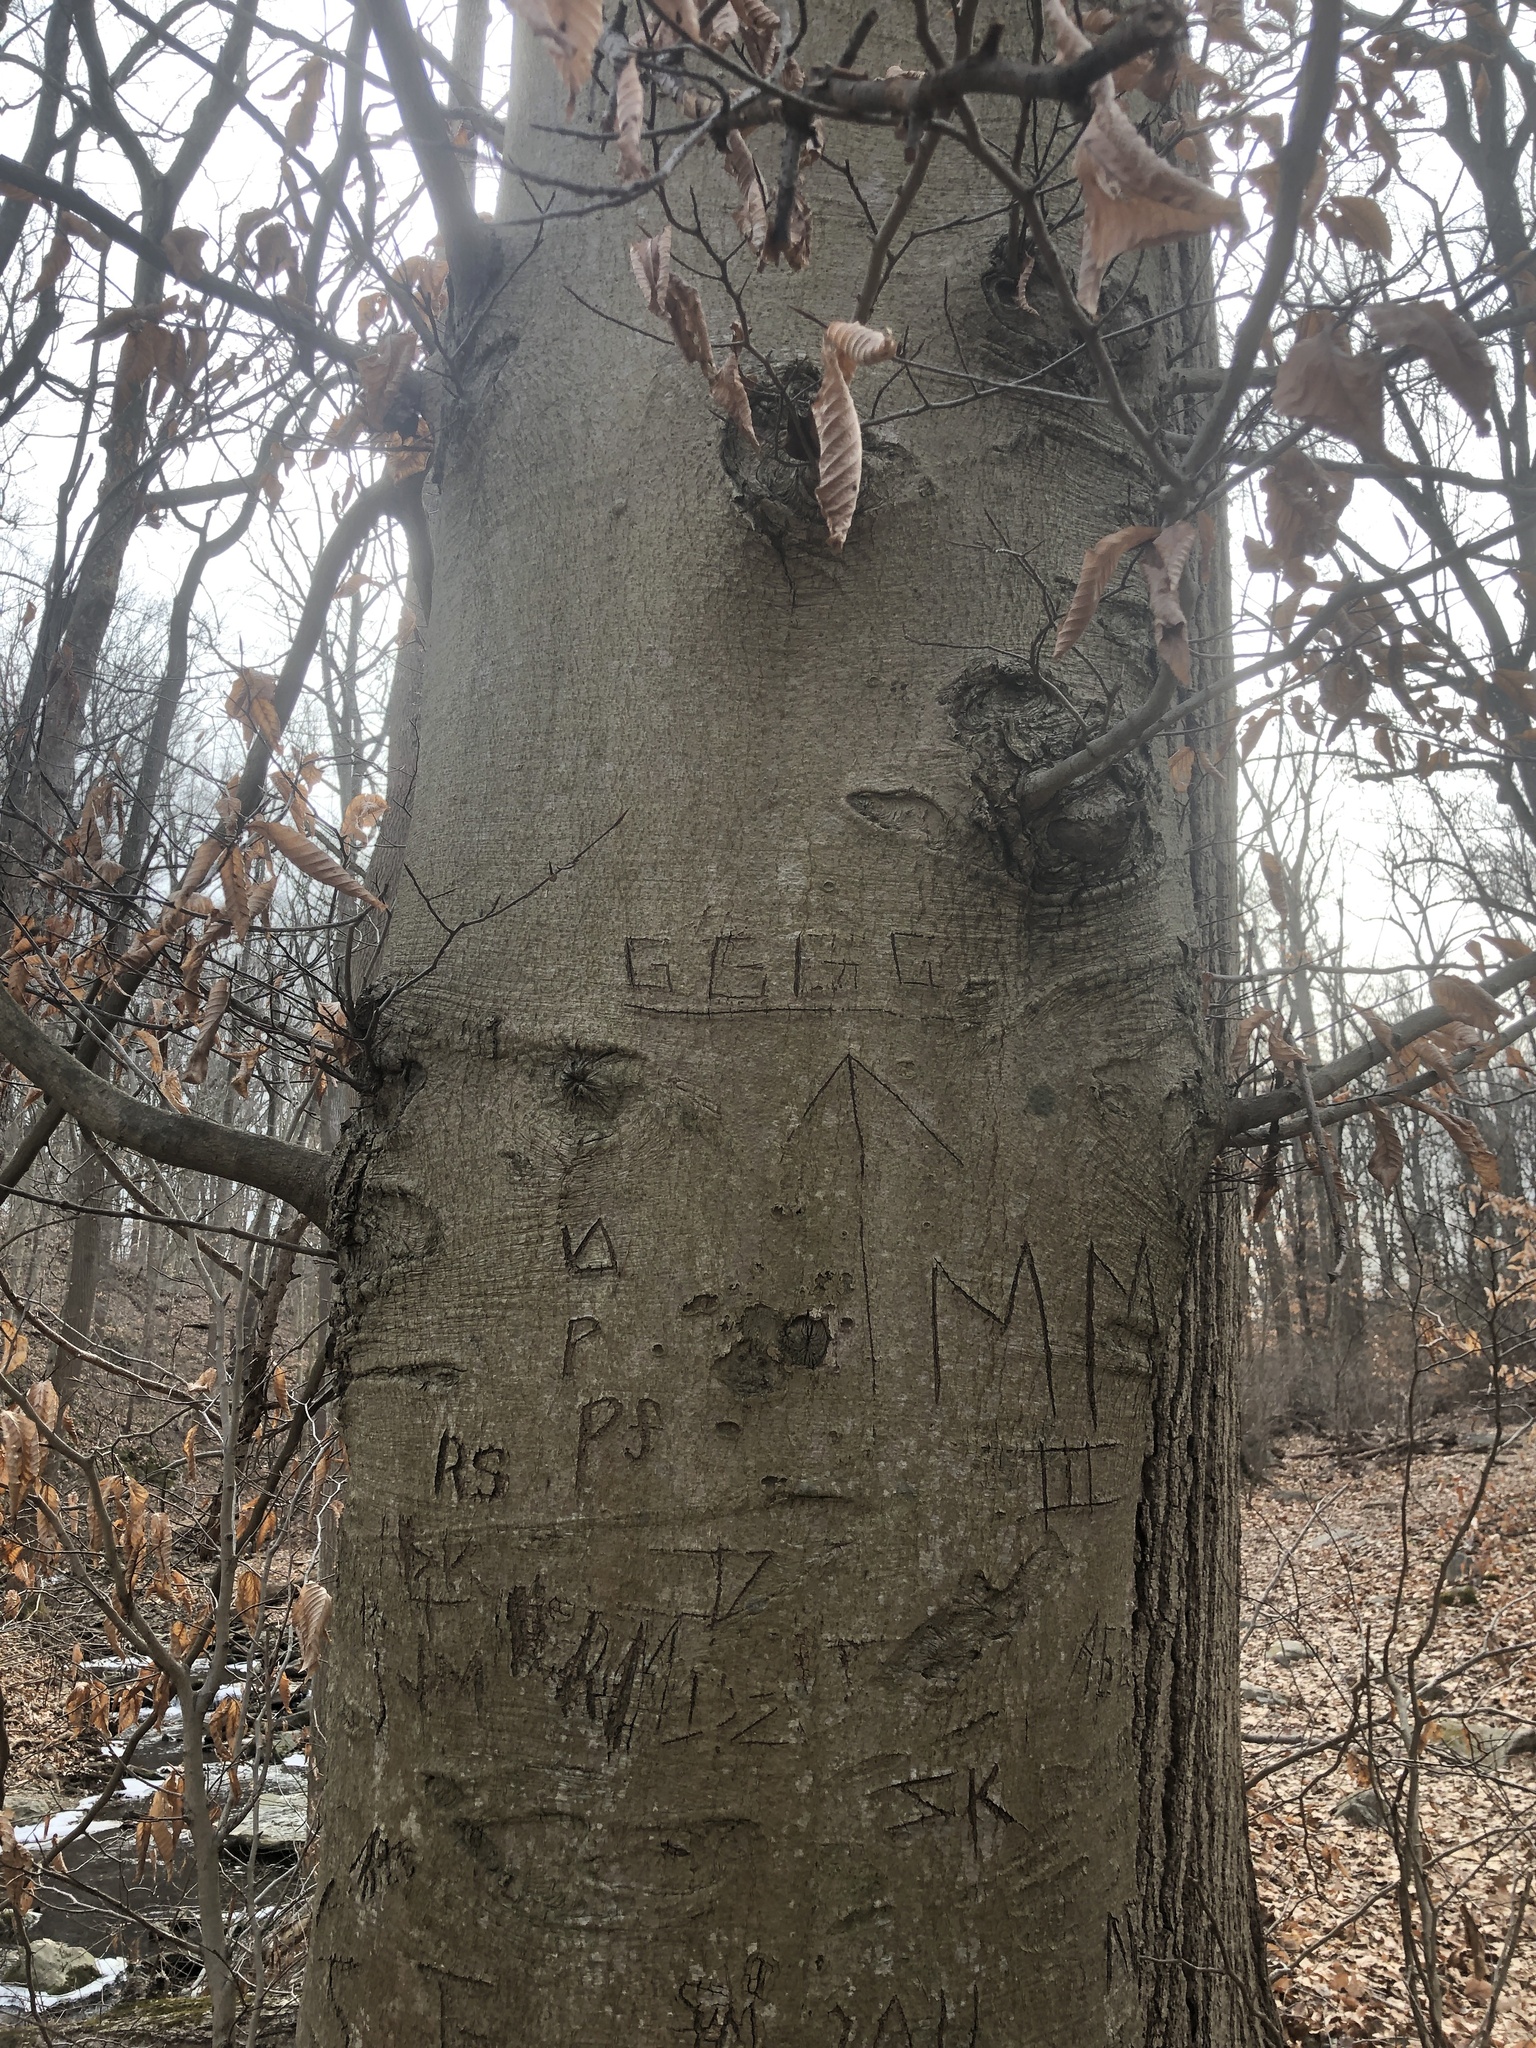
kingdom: Plantae
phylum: Tracheophyta
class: Magnoliopsida
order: Fagales
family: Fagaceae
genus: Fagus
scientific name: Fagus grandifolia
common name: American beech
